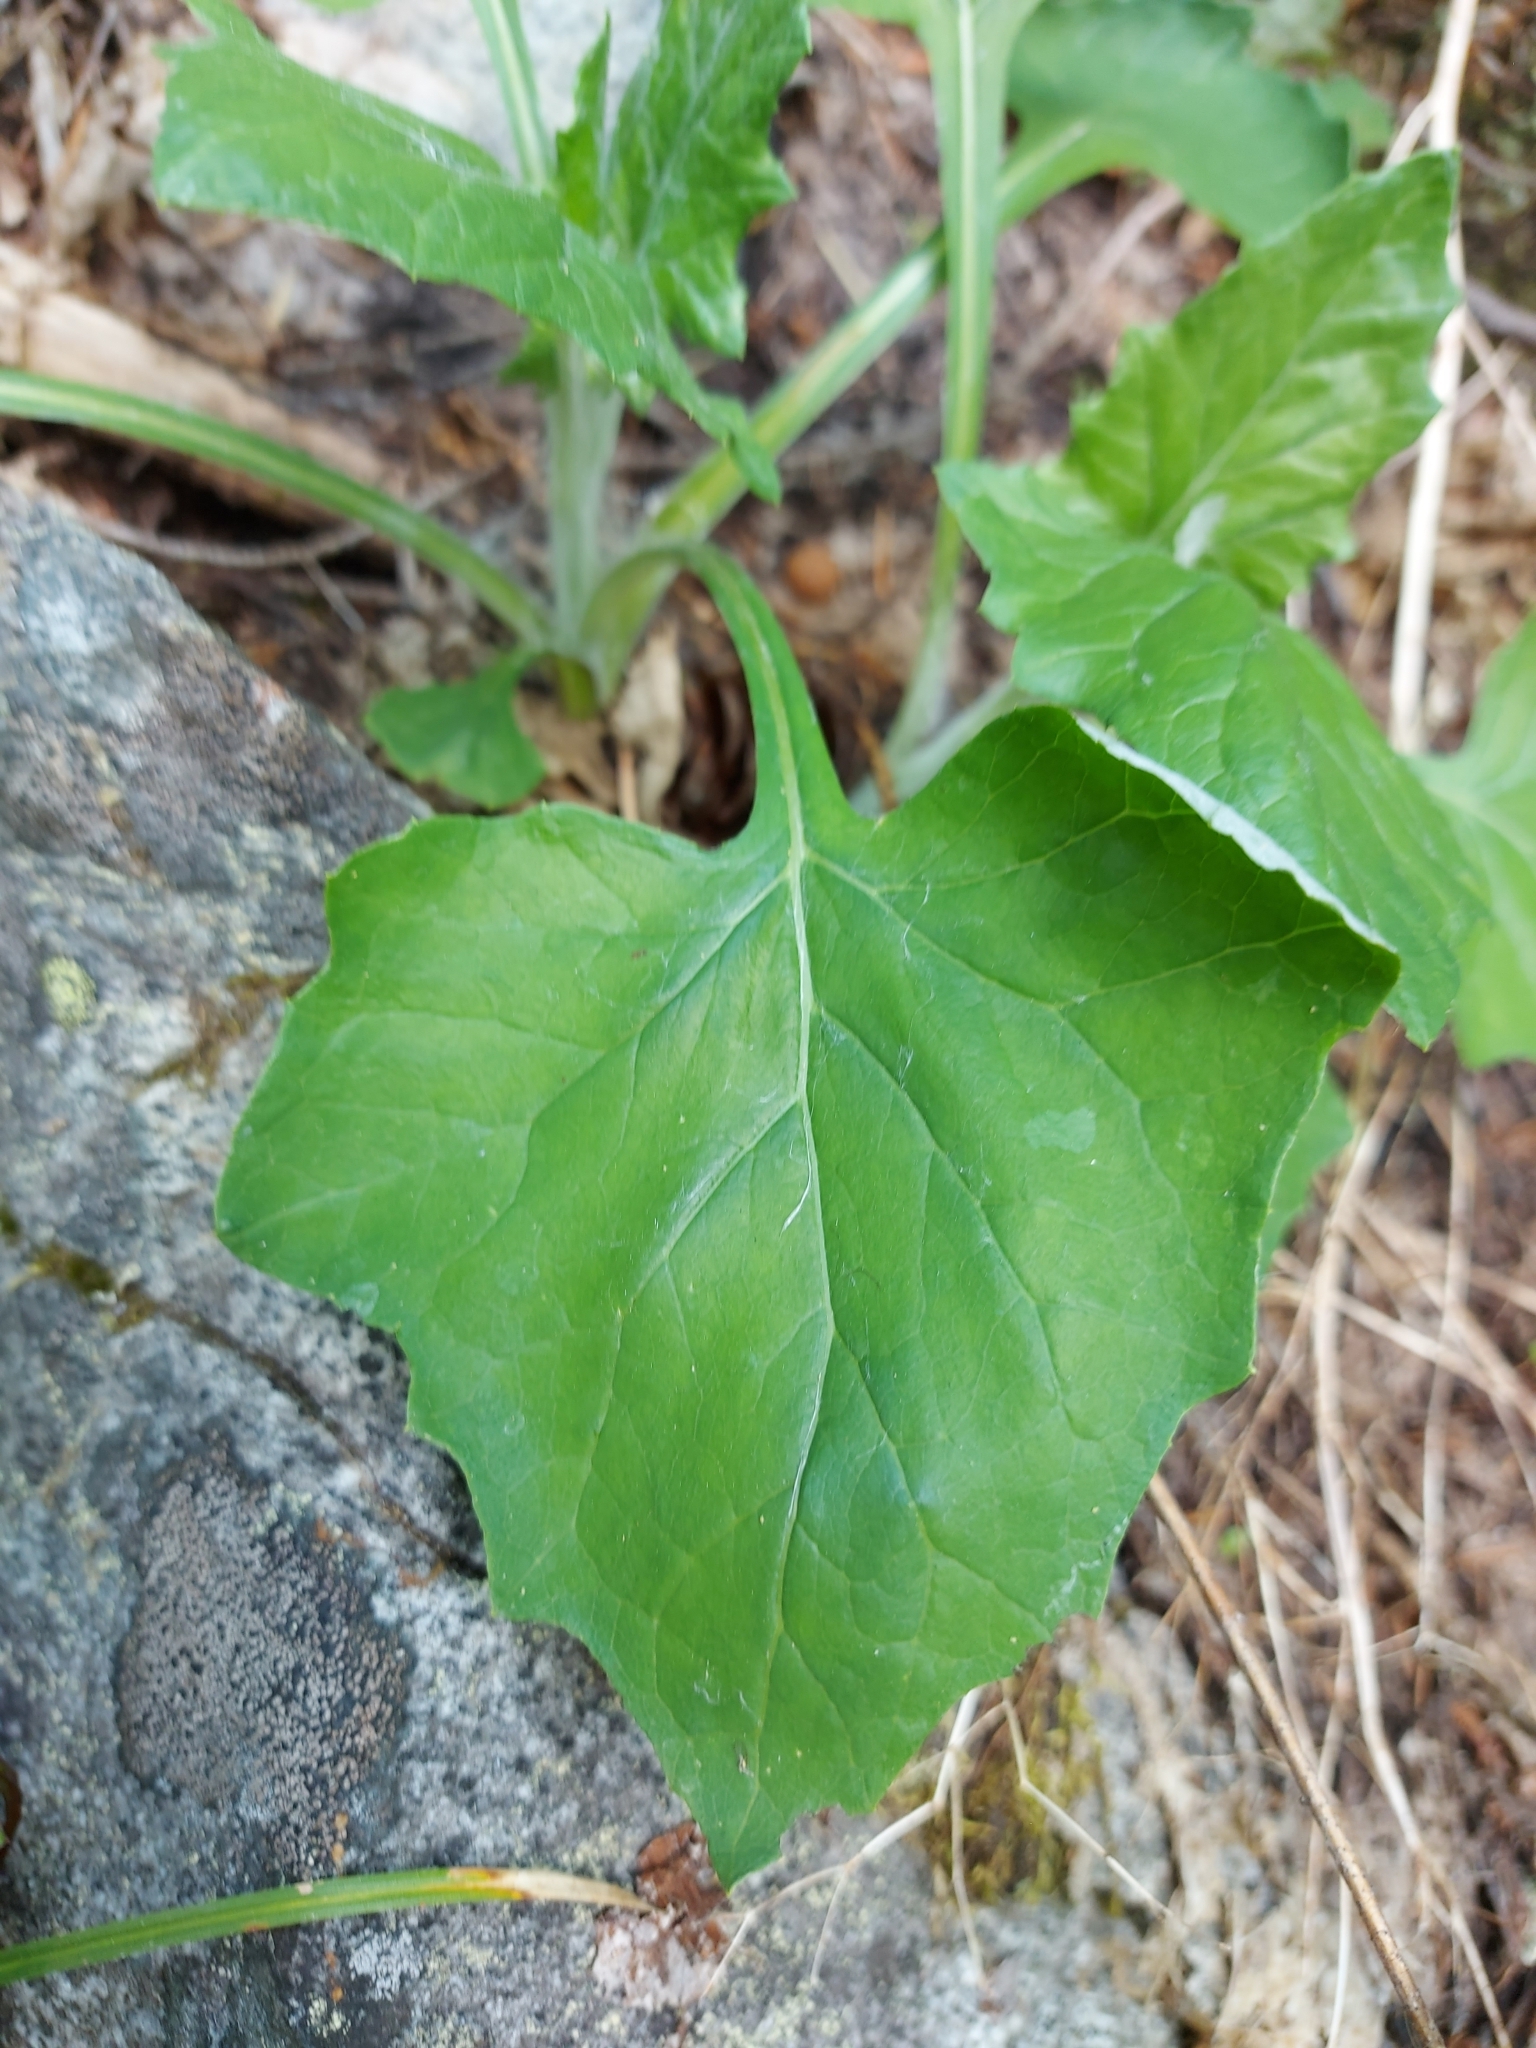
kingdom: Plantae
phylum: Tracheophyta
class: Magnoliopsida
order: Asterales
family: Asteraceae
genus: Adenocaulon
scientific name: Adenocaulon bicolor
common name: Trailplant
